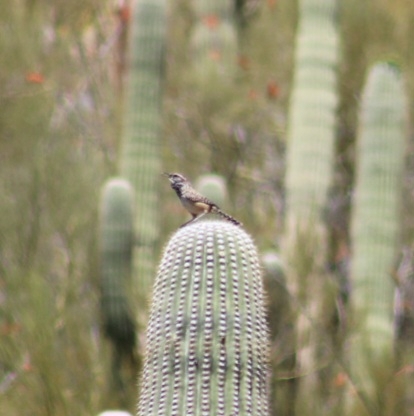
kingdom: Animalia
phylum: Chordata
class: Aves
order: Passeriformes
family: Troglodytidae
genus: Campylorhynchus
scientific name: Campylorhynchus brunneicapillus
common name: Cactus wren
